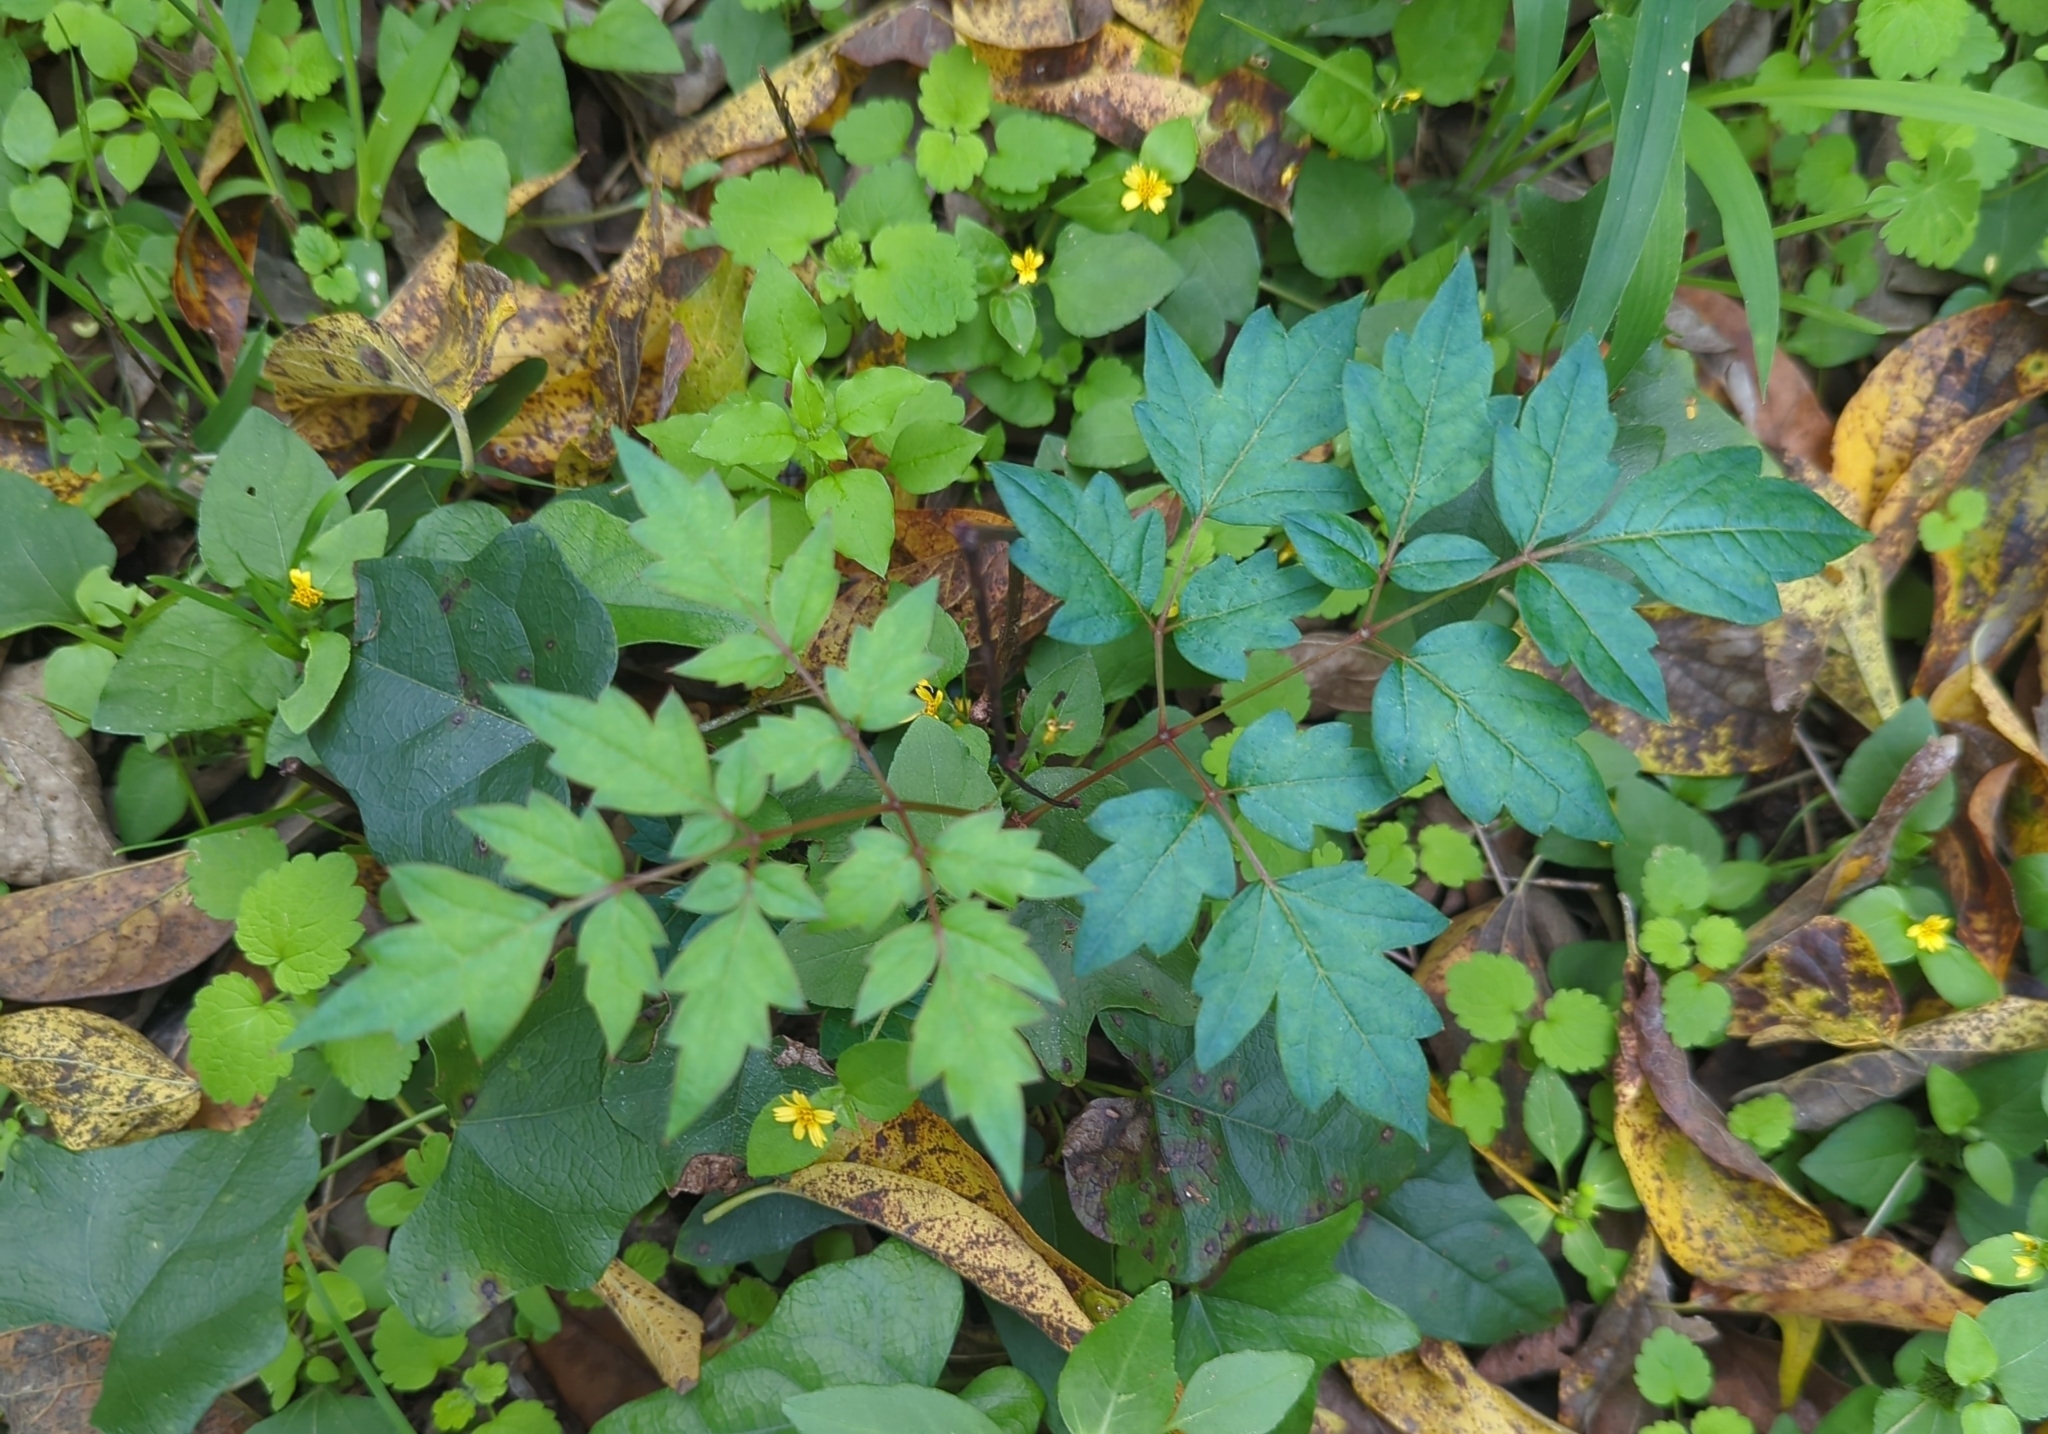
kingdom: Plantae
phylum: Tracheophyta
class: Magnoliopsida
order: Vitales
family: Vitaceae
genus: Nekemias
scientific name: Nekemias arborea
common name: Peppervine
